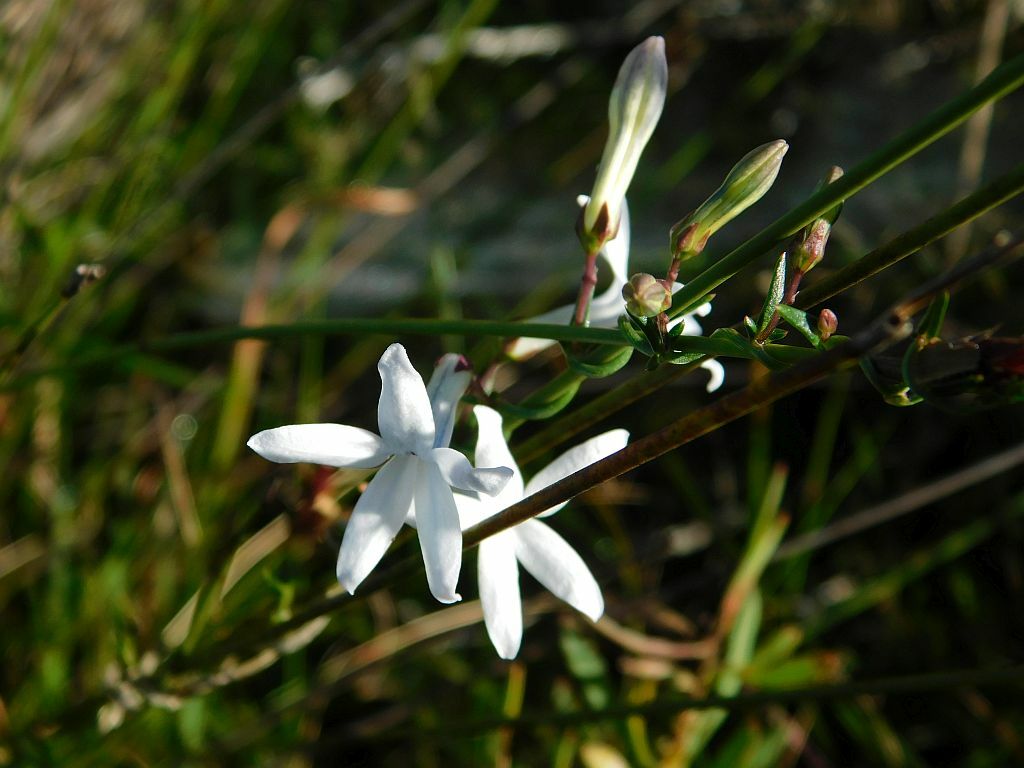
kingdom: Plantae
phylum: Tracheophyta
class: Magnoliopsida
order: Asterales
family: Campanulaceae
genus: Cyphia
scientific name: Cyphia volubilis
